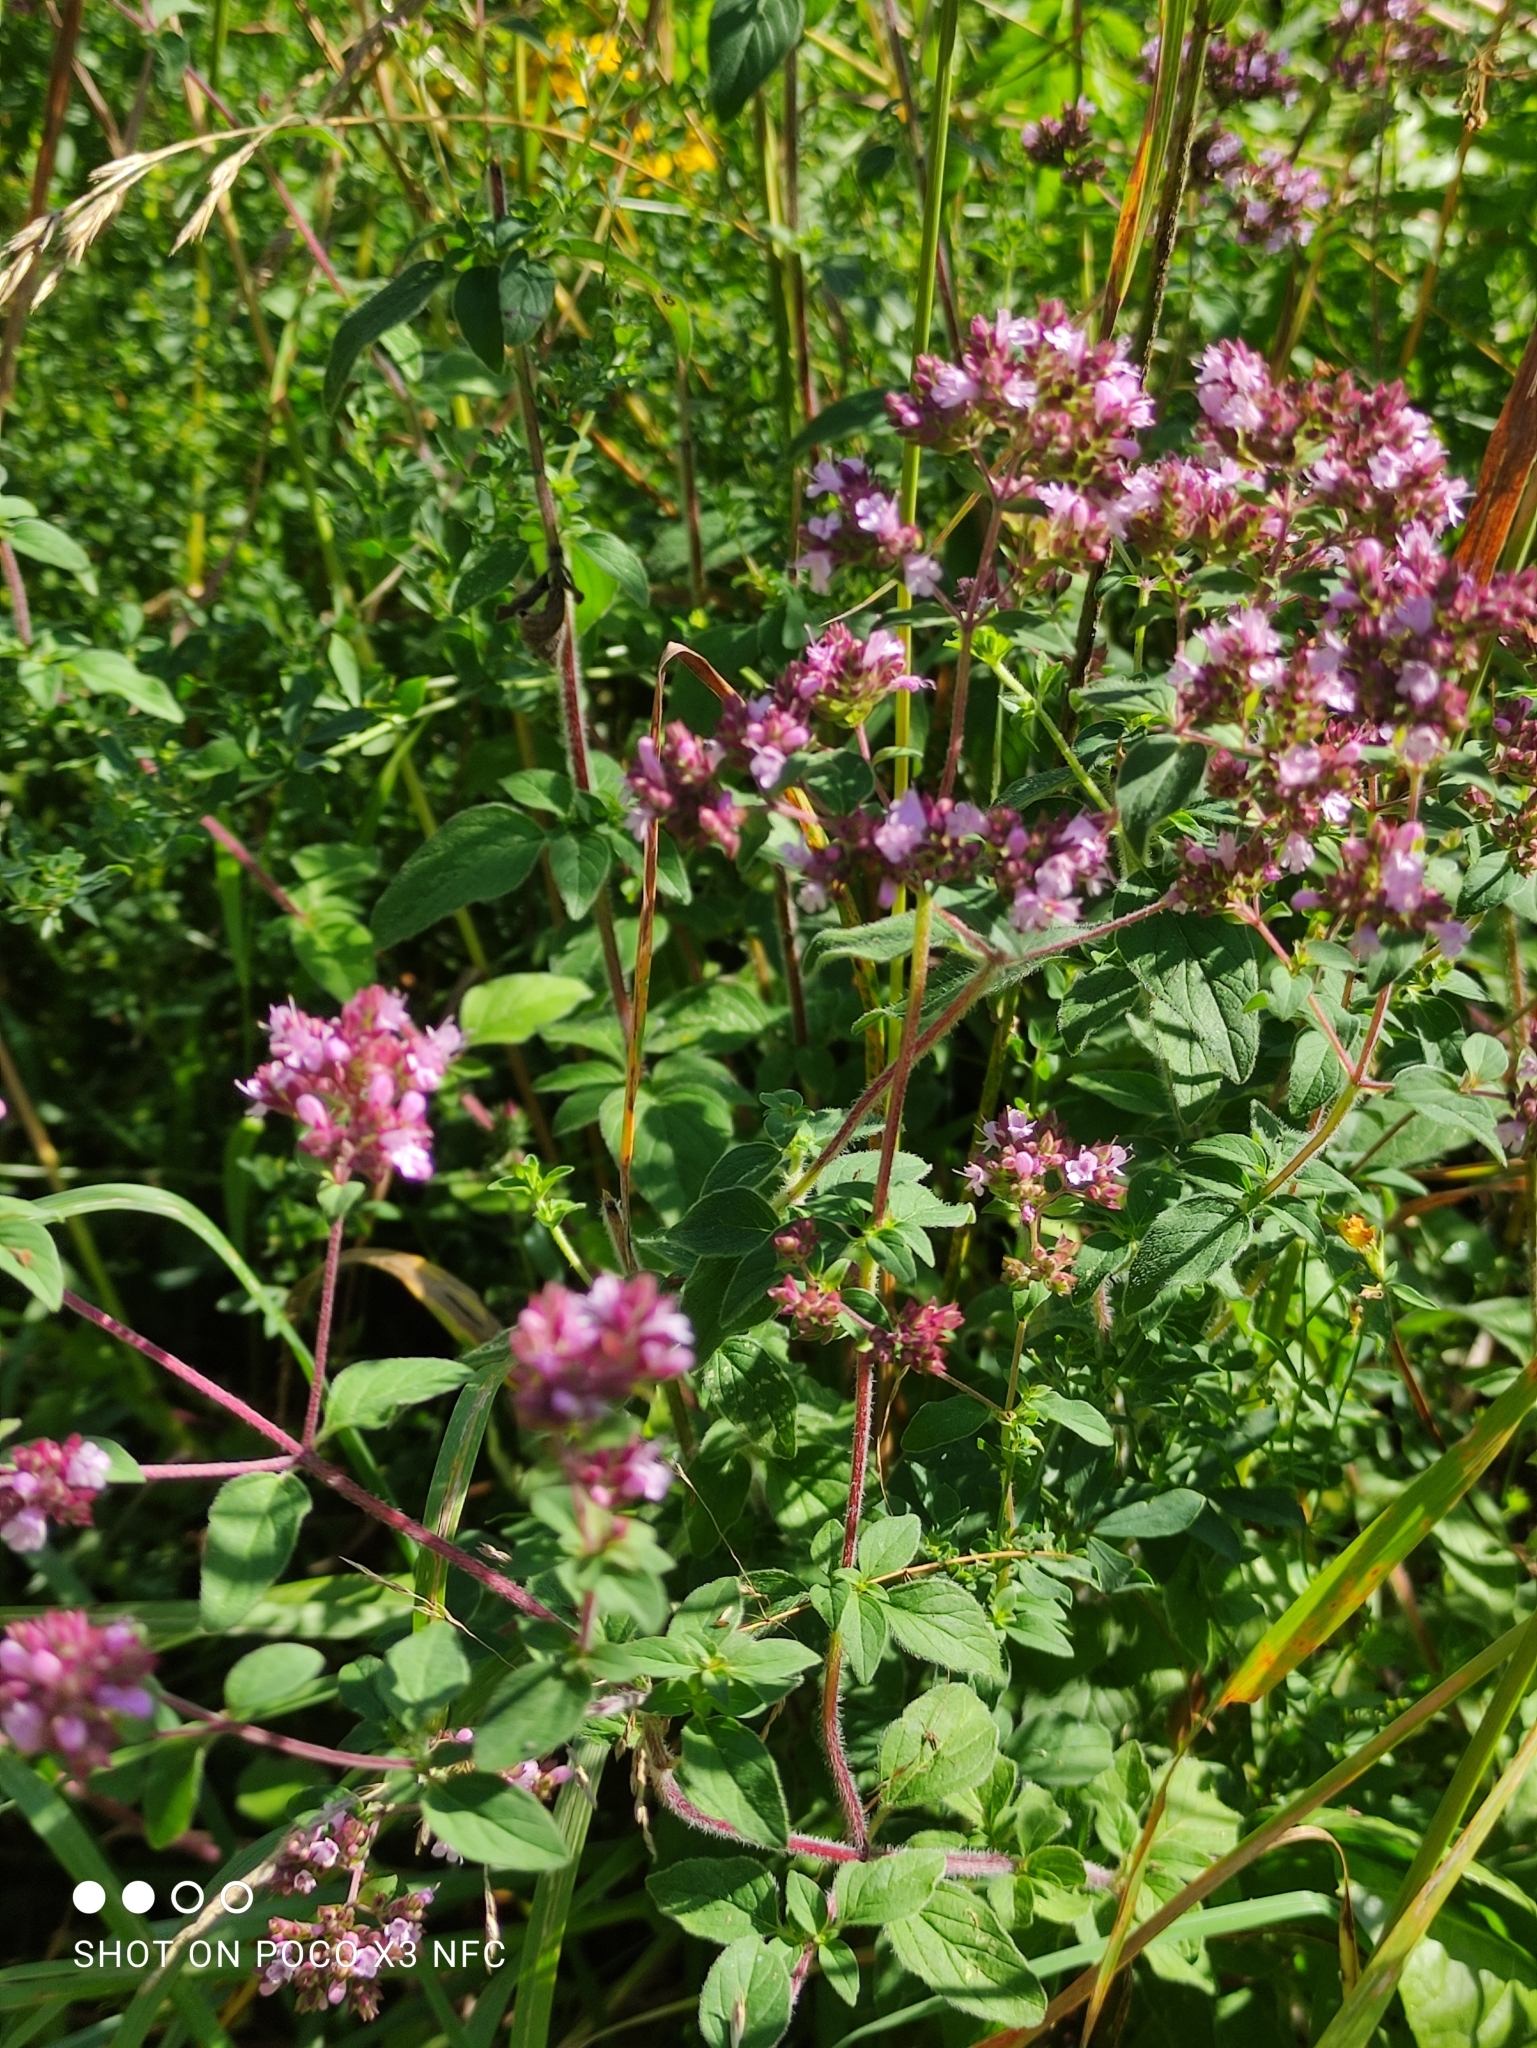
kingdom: Plantae
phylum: Tracheophyta
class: Magnoliopsida
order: Lamiales
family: Lamiaceae
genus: Origanum
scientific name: Origanum vulgare
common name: Wild marjoram
